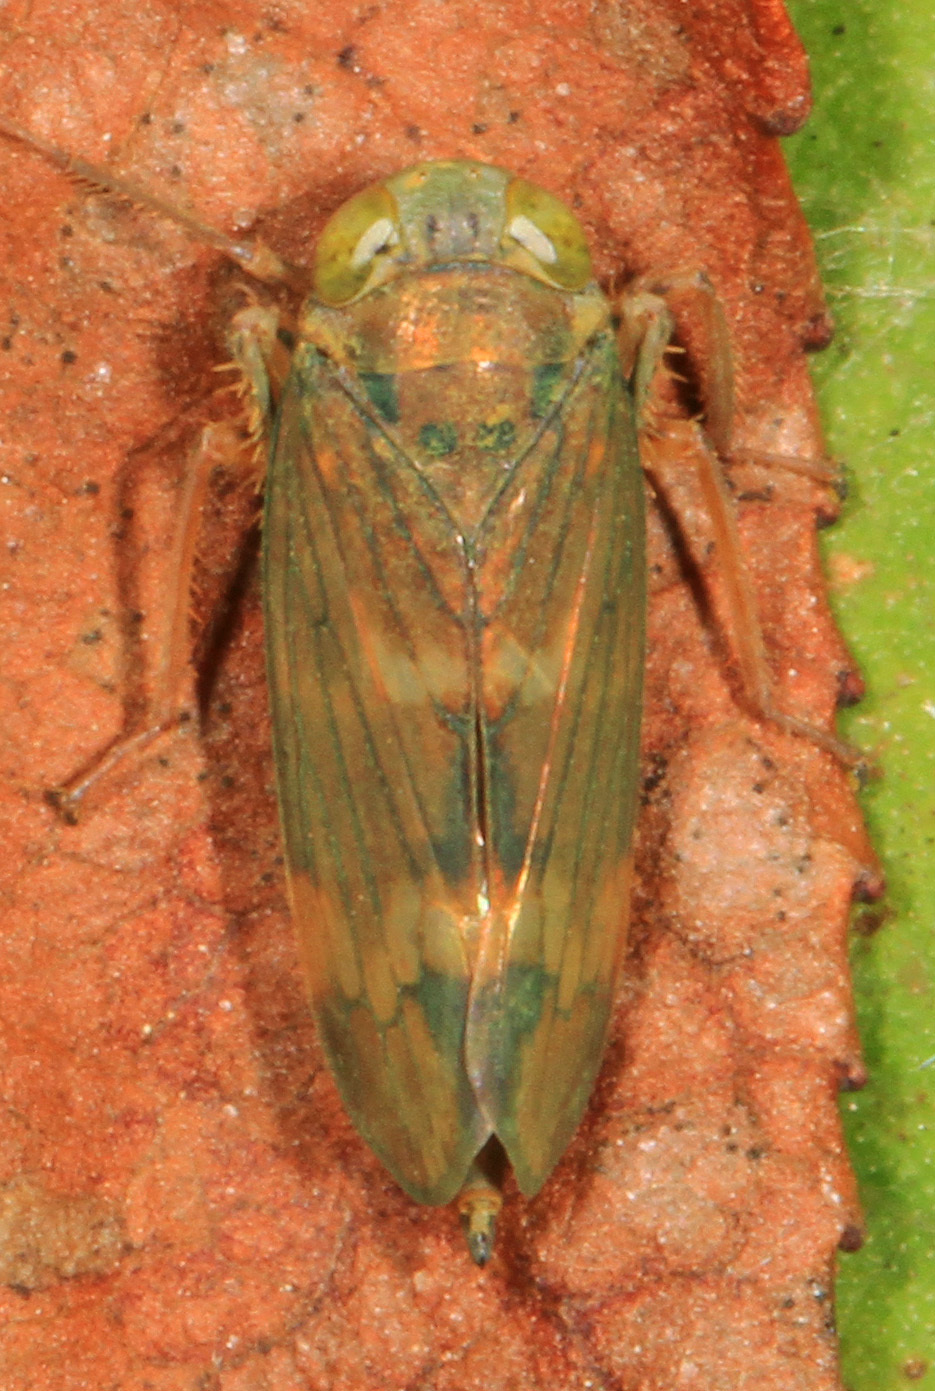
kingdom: Animalia
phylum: Arthropoda
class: Insecta
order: Hemiptera
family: Cicadellidae
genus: Jikradia
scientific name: Jikradia olitoria
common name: Coppery leafhopper
